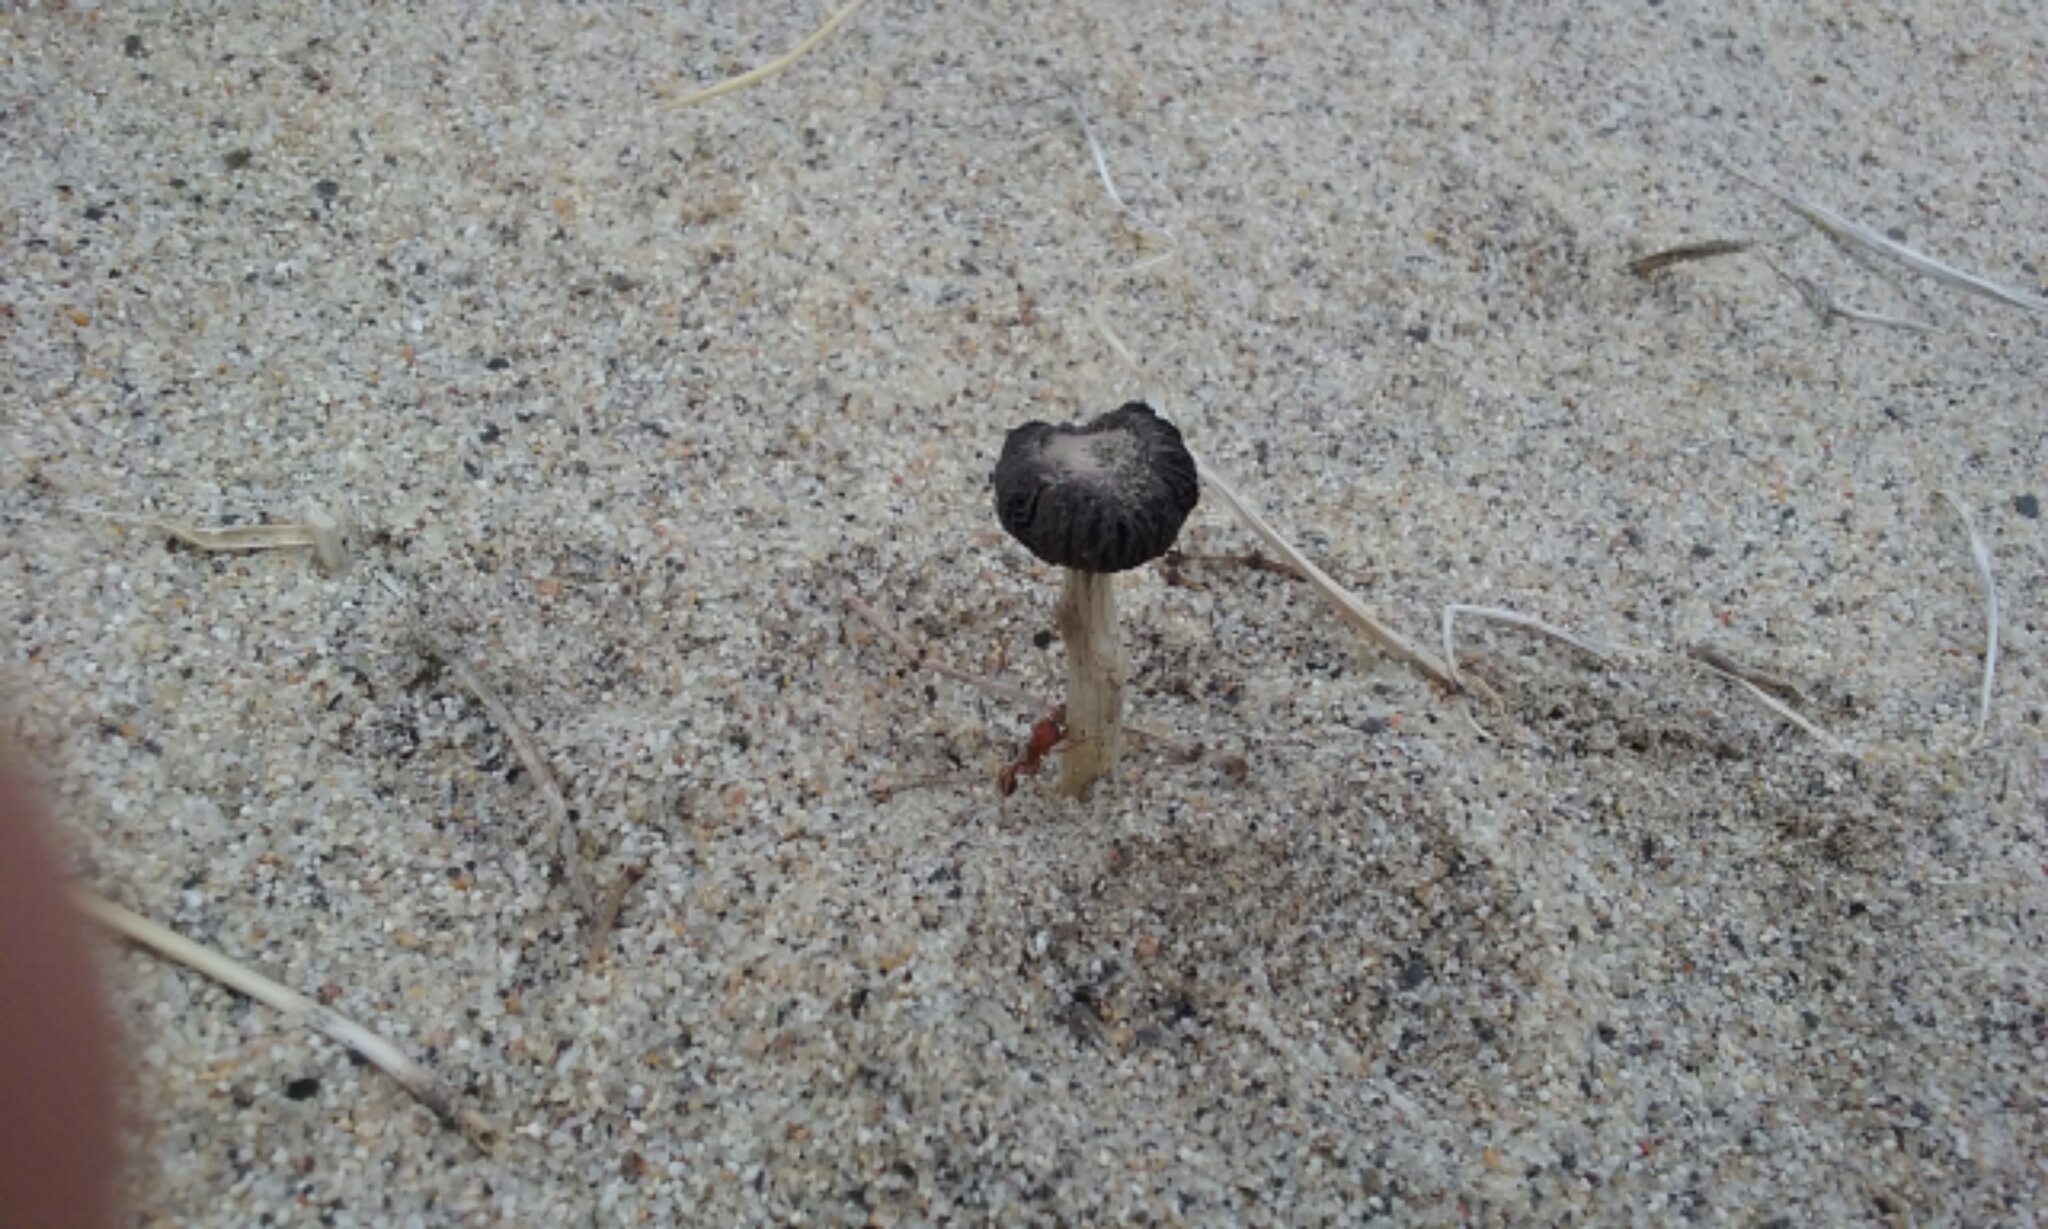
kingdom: Fungi
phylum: Basidiomycota
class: Agaricomycetes
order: Agaricales
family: Agaricaceae
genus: Montagnea
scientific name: Montagnea arenaria
